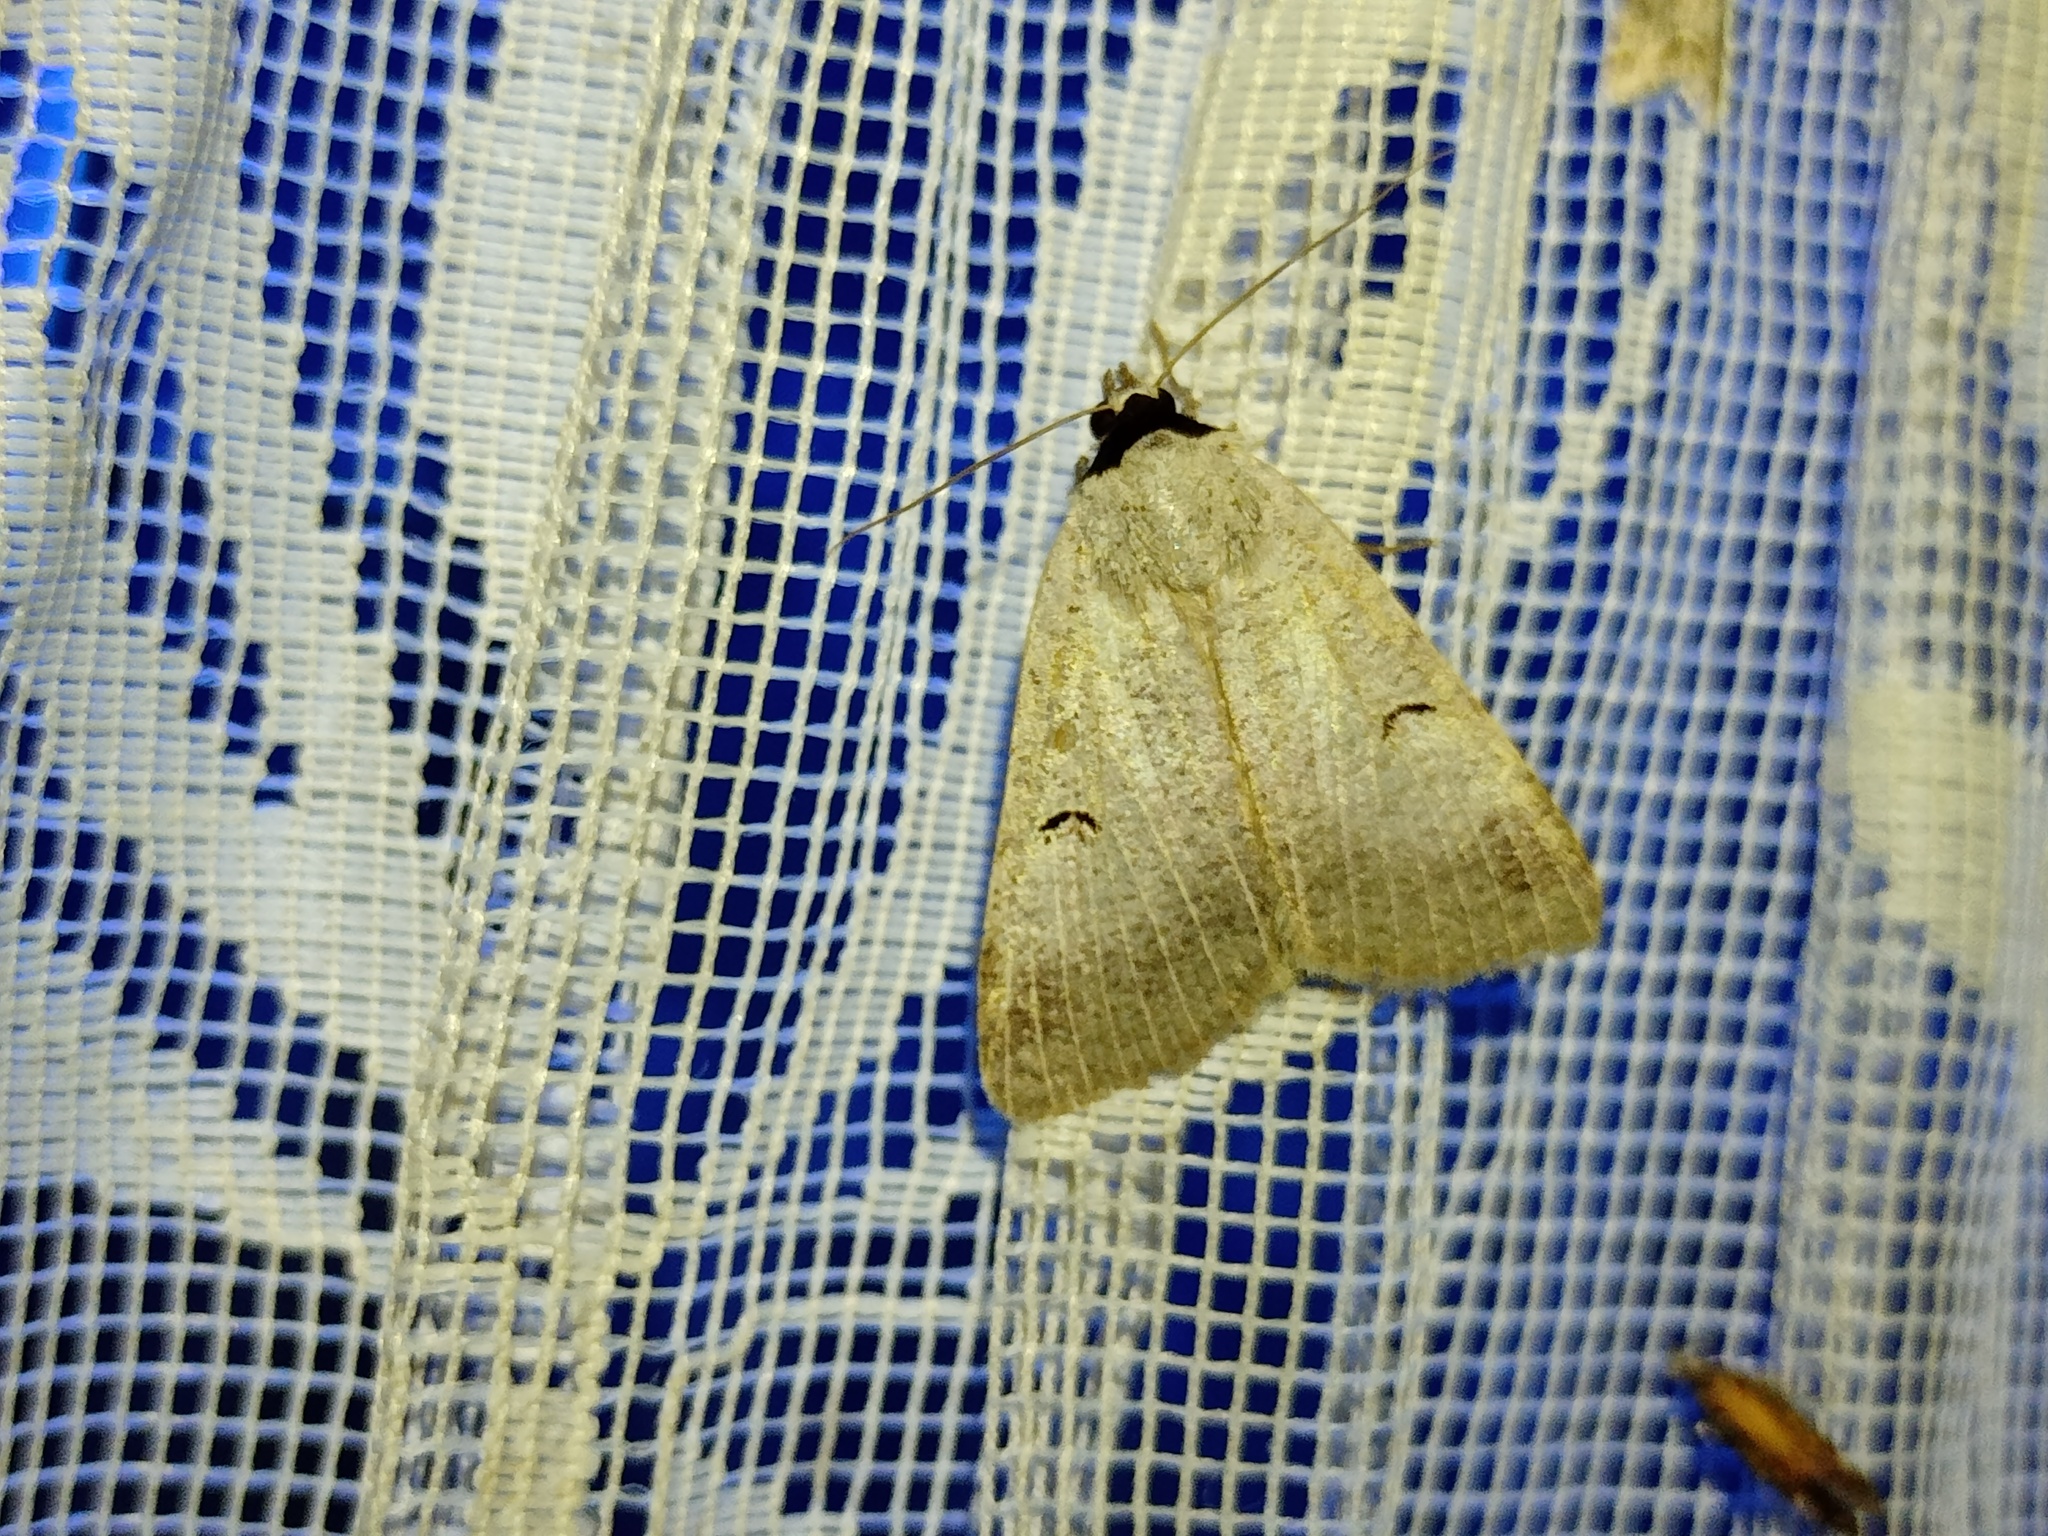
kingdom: Animalia
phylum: Arthropoda
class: Insecta
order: Lepidoptera
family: Erebidae
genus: Lygephila
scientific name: Lygephila craccae
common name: Scarce blackneck
